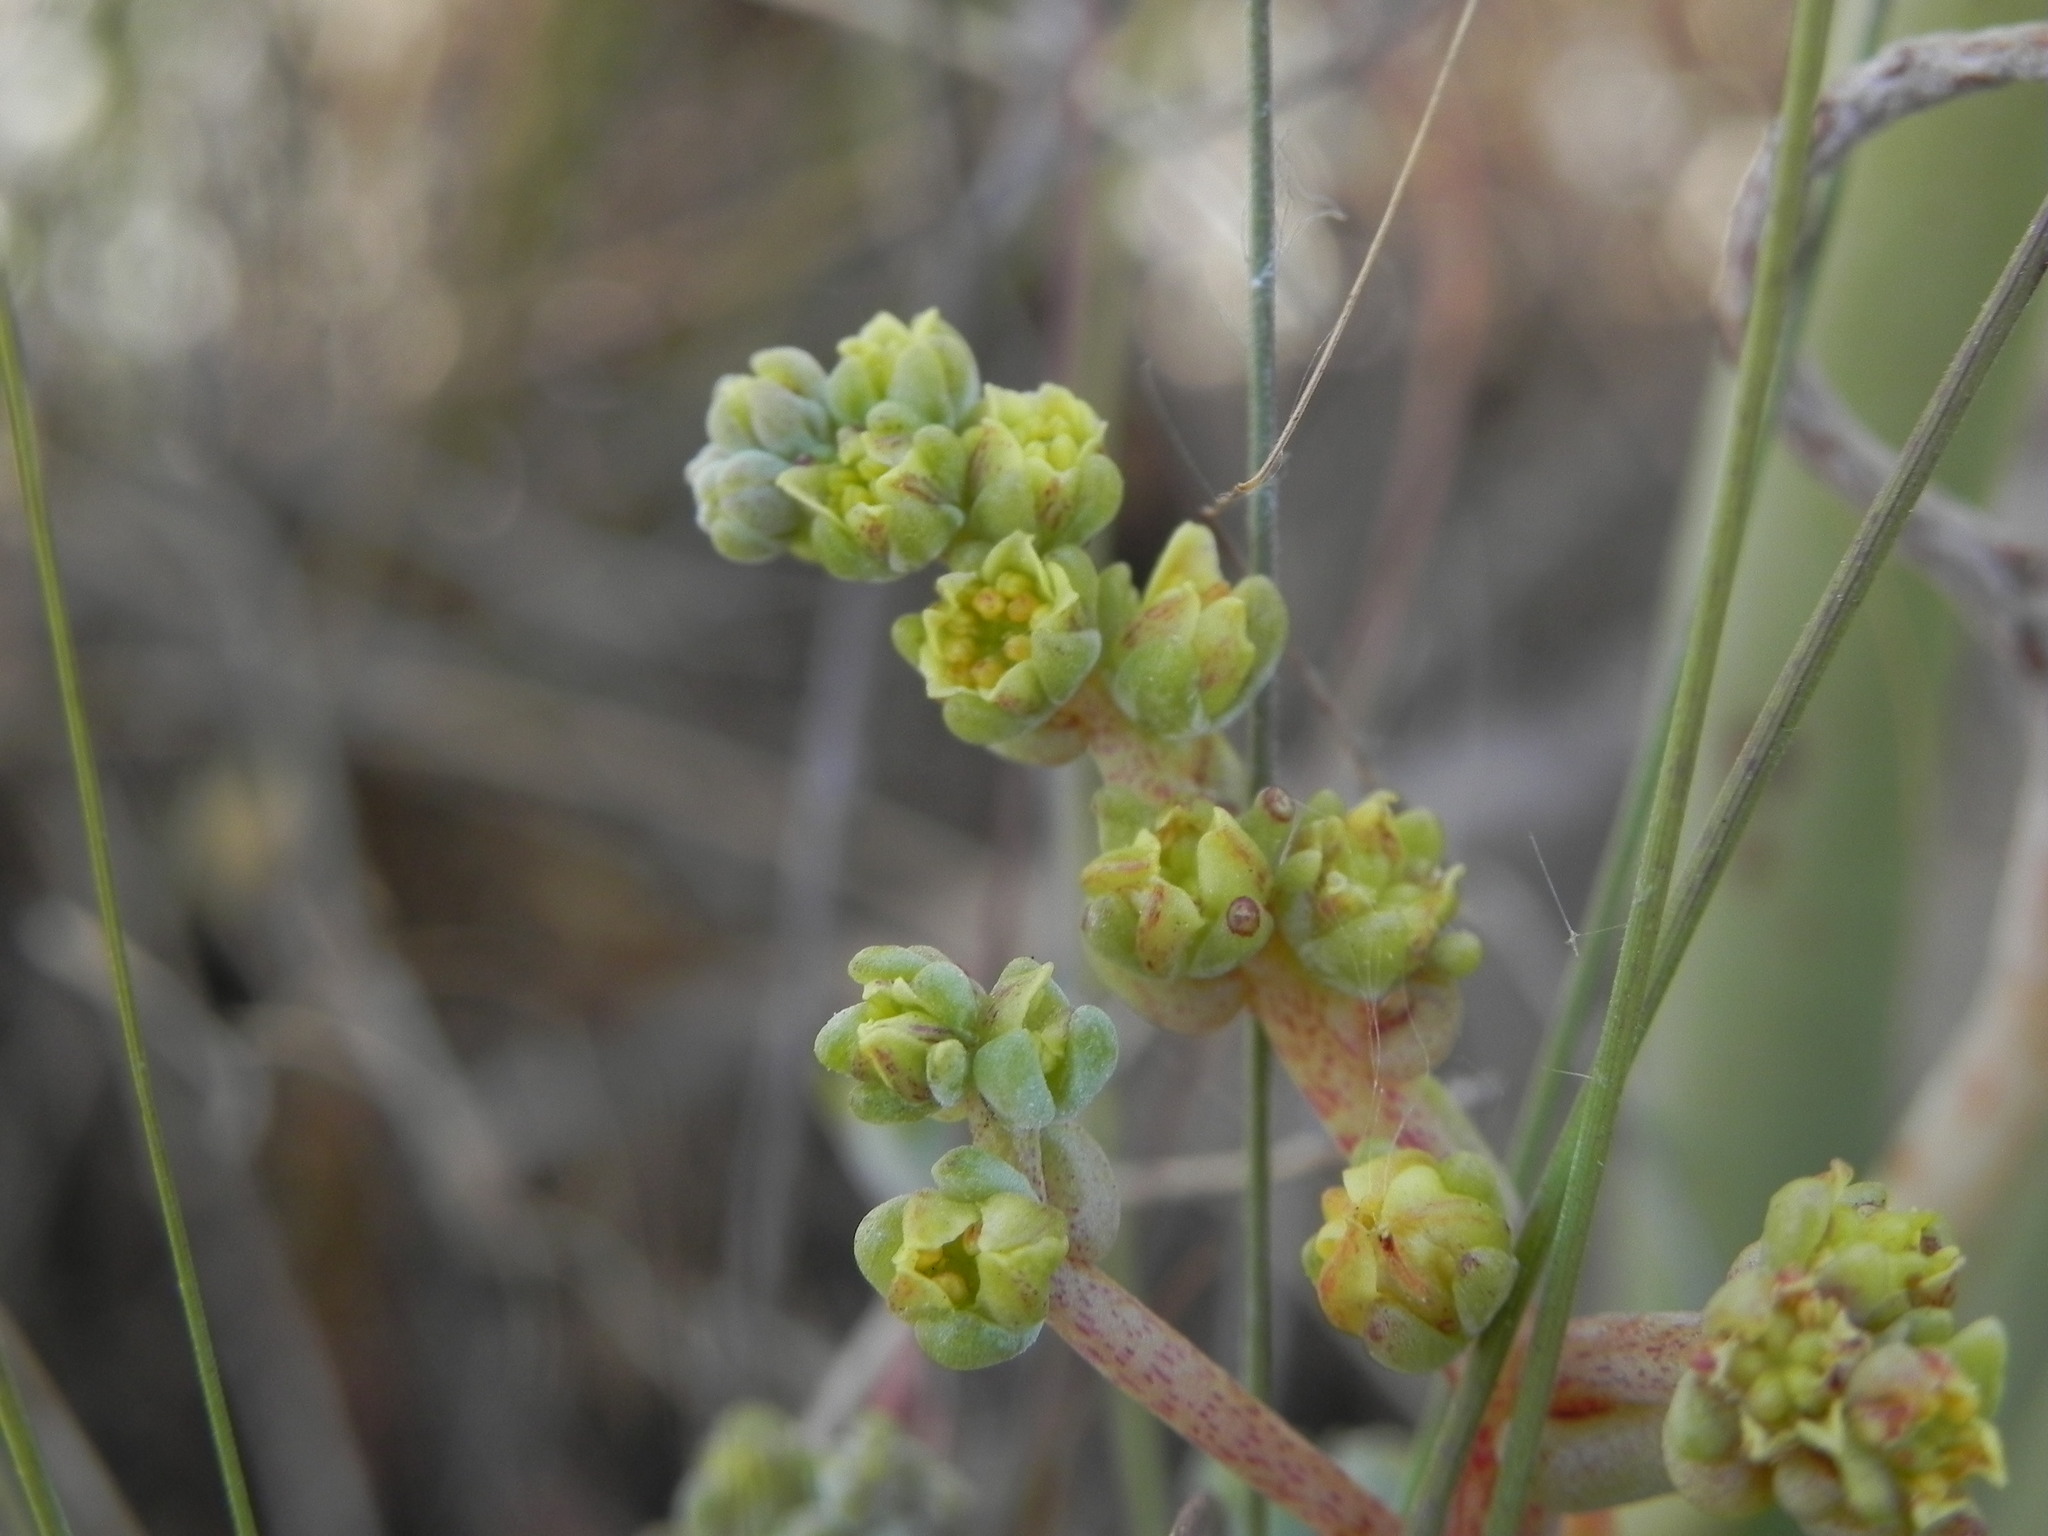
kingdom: Plantae
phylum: Tracheophyta
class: Magnoliopsida
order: Saxifragales
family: Crassulaceae
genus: Dudleya
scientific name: Dudleya variegata
